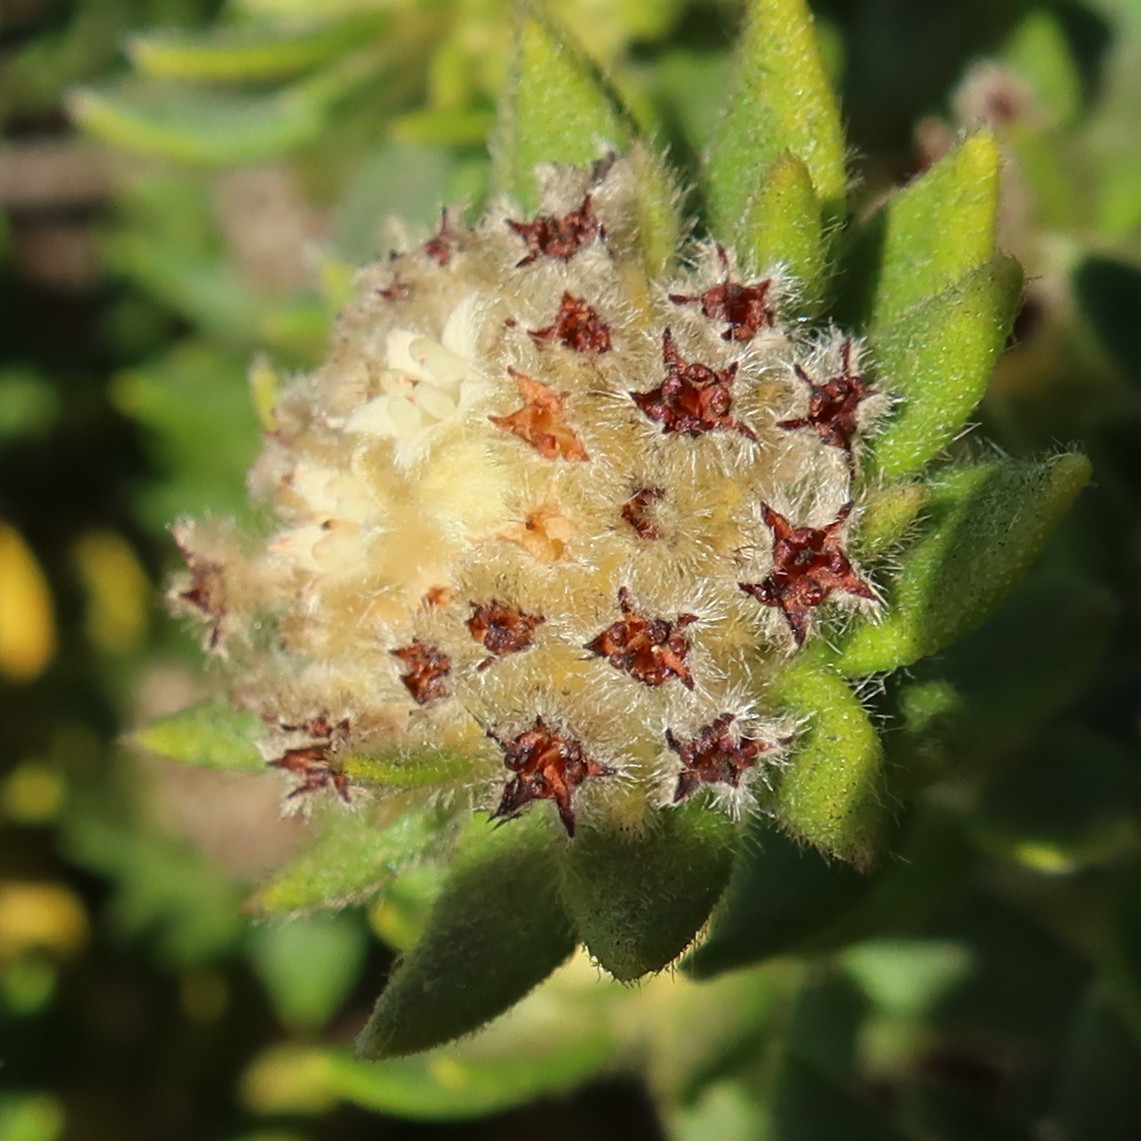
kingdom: Plantae
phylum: Tracheophyta
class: Magnoliopsida
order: Rosales
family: Rhamnaceae
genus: Phylica
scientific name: Phylica dioica
